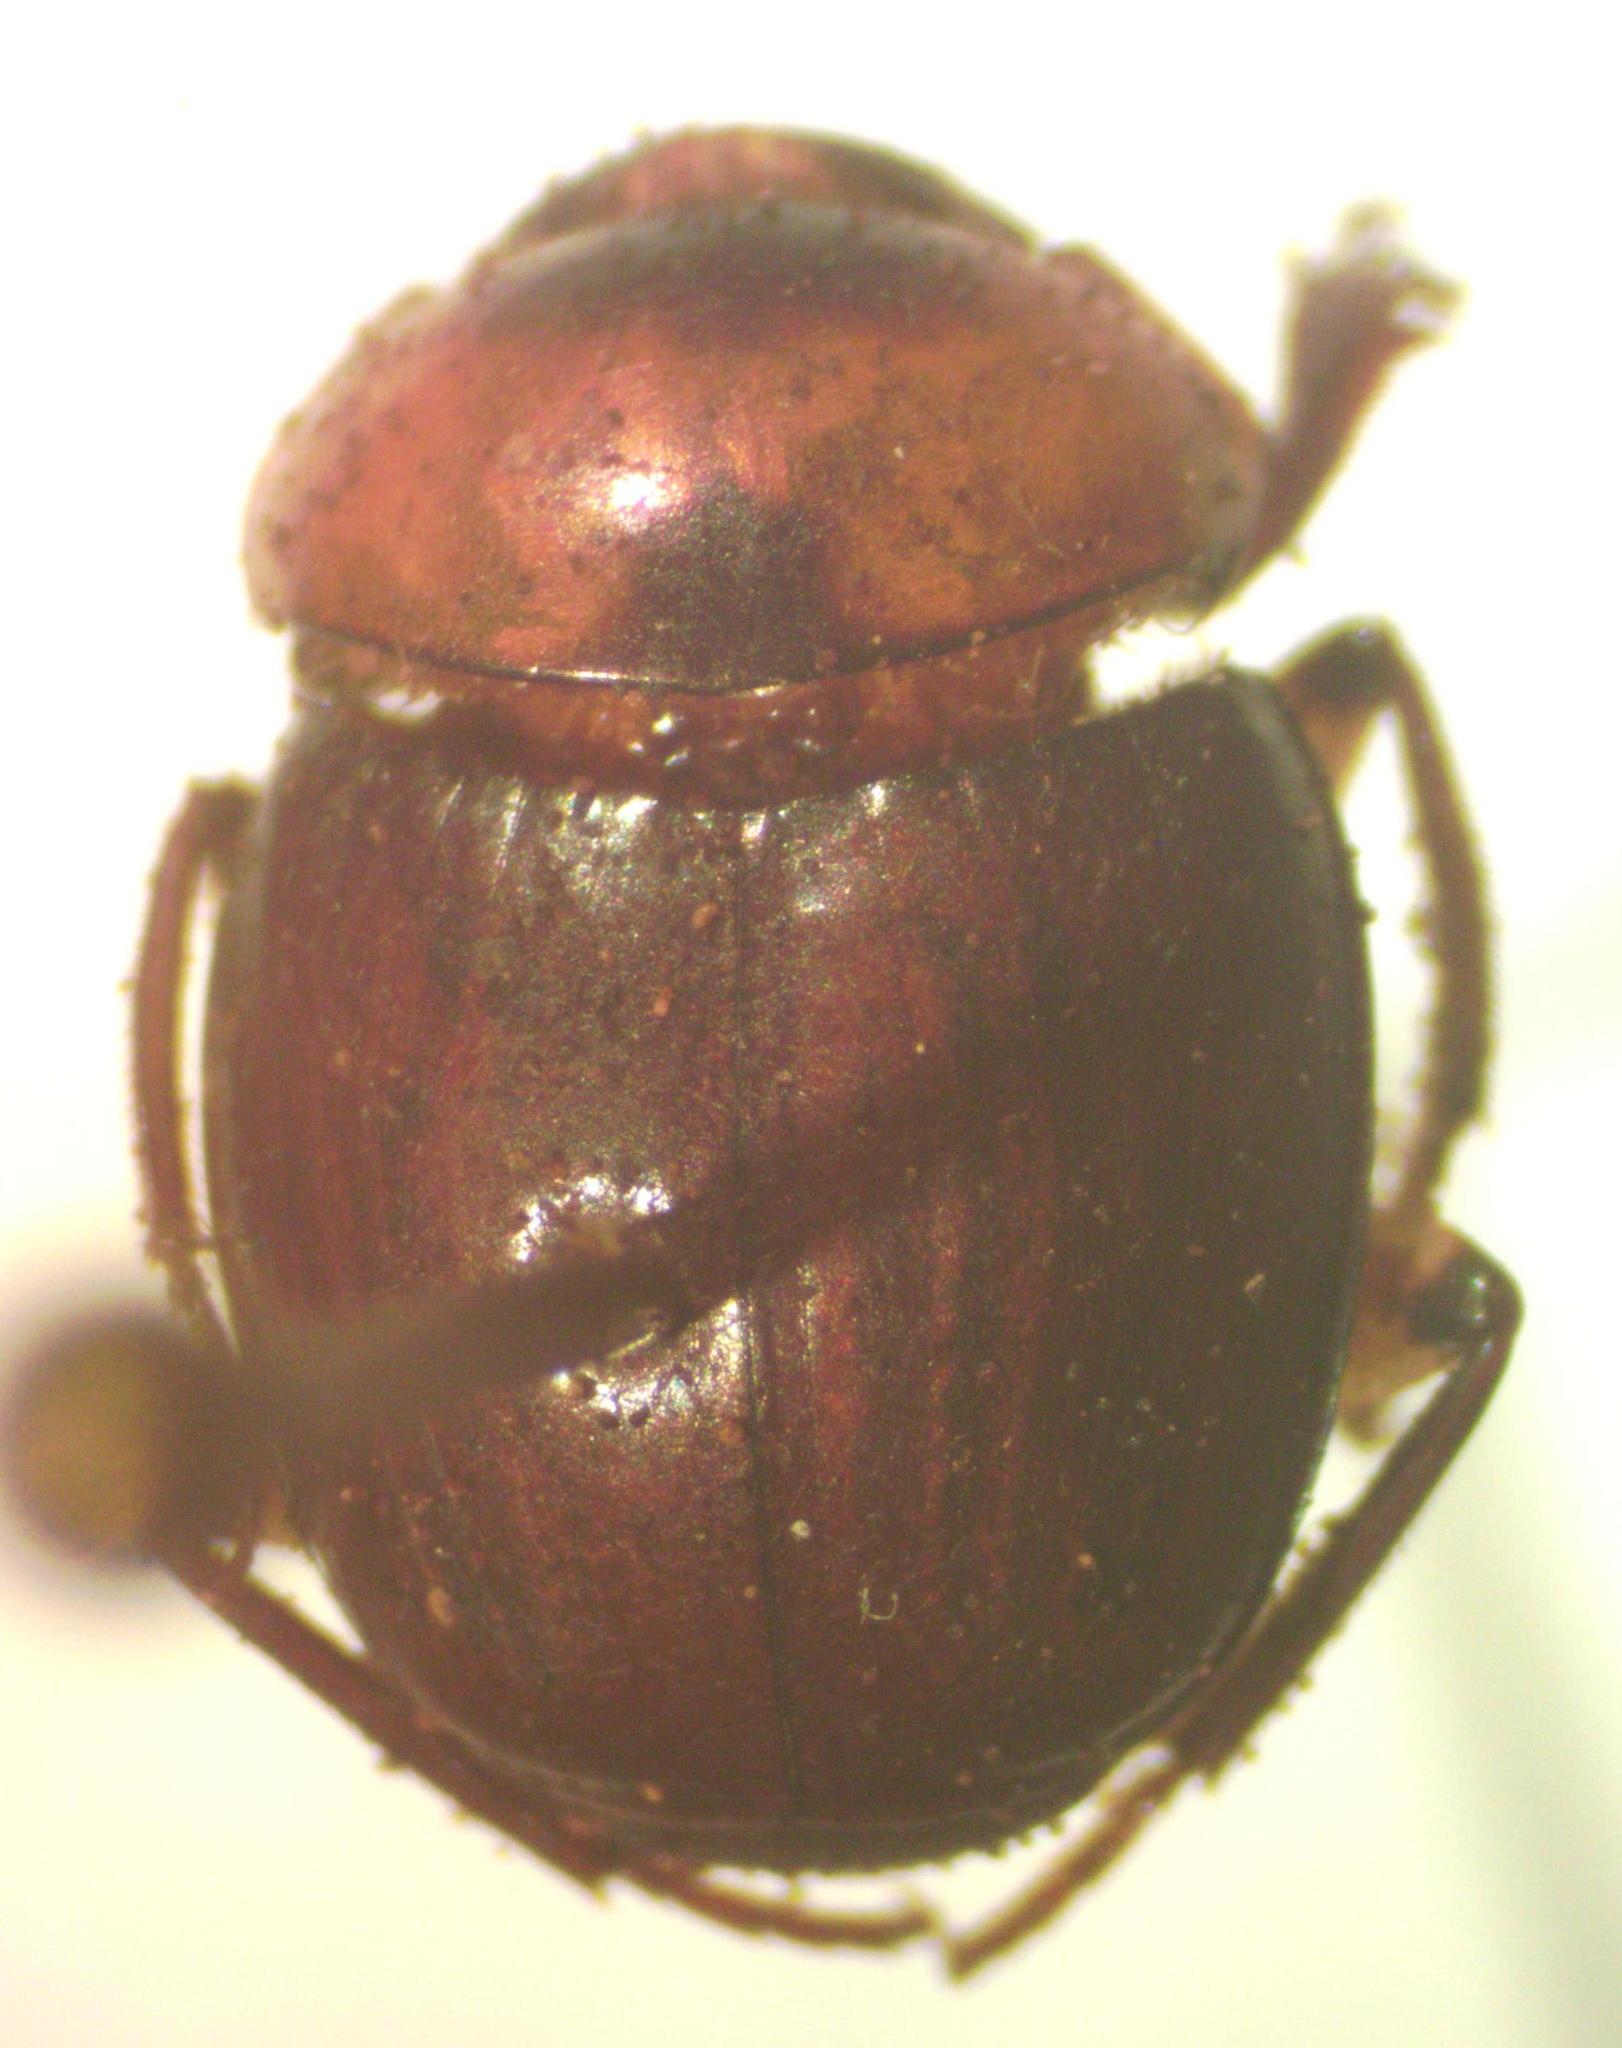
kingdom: Animalia
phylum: Arthropoda
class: Insecta
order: Coleoptera
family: Scarabaeidae
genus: Scybalocanthon
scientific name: Scybalocanthon moniliatus
